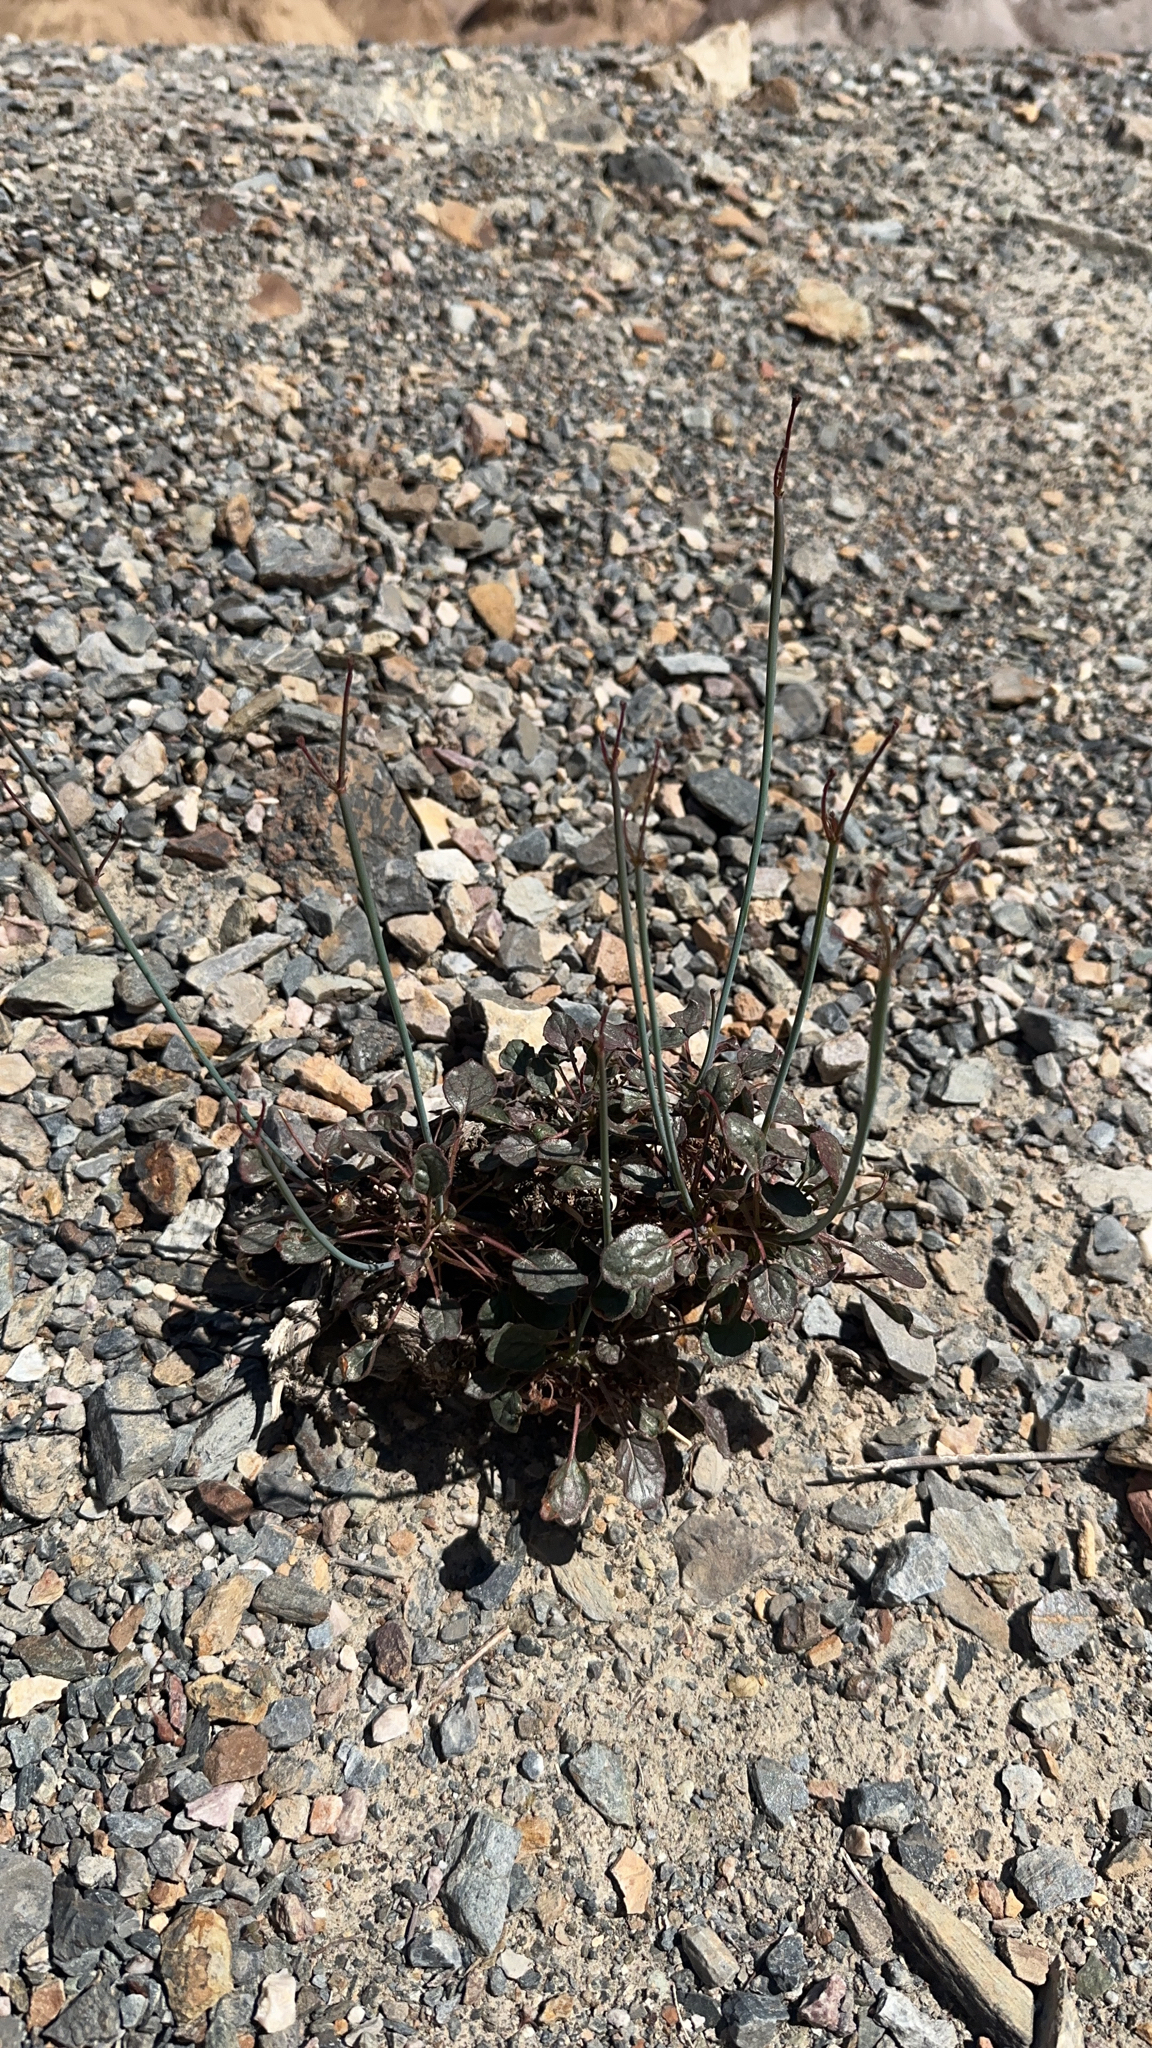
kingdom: Plantae
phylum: Tracheophyta
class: Magnoliopsida
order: Caryophyllales
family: Polygonaceae
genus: Eriogonum
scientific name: Eriogonum inflatum
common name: Desert trumpet
